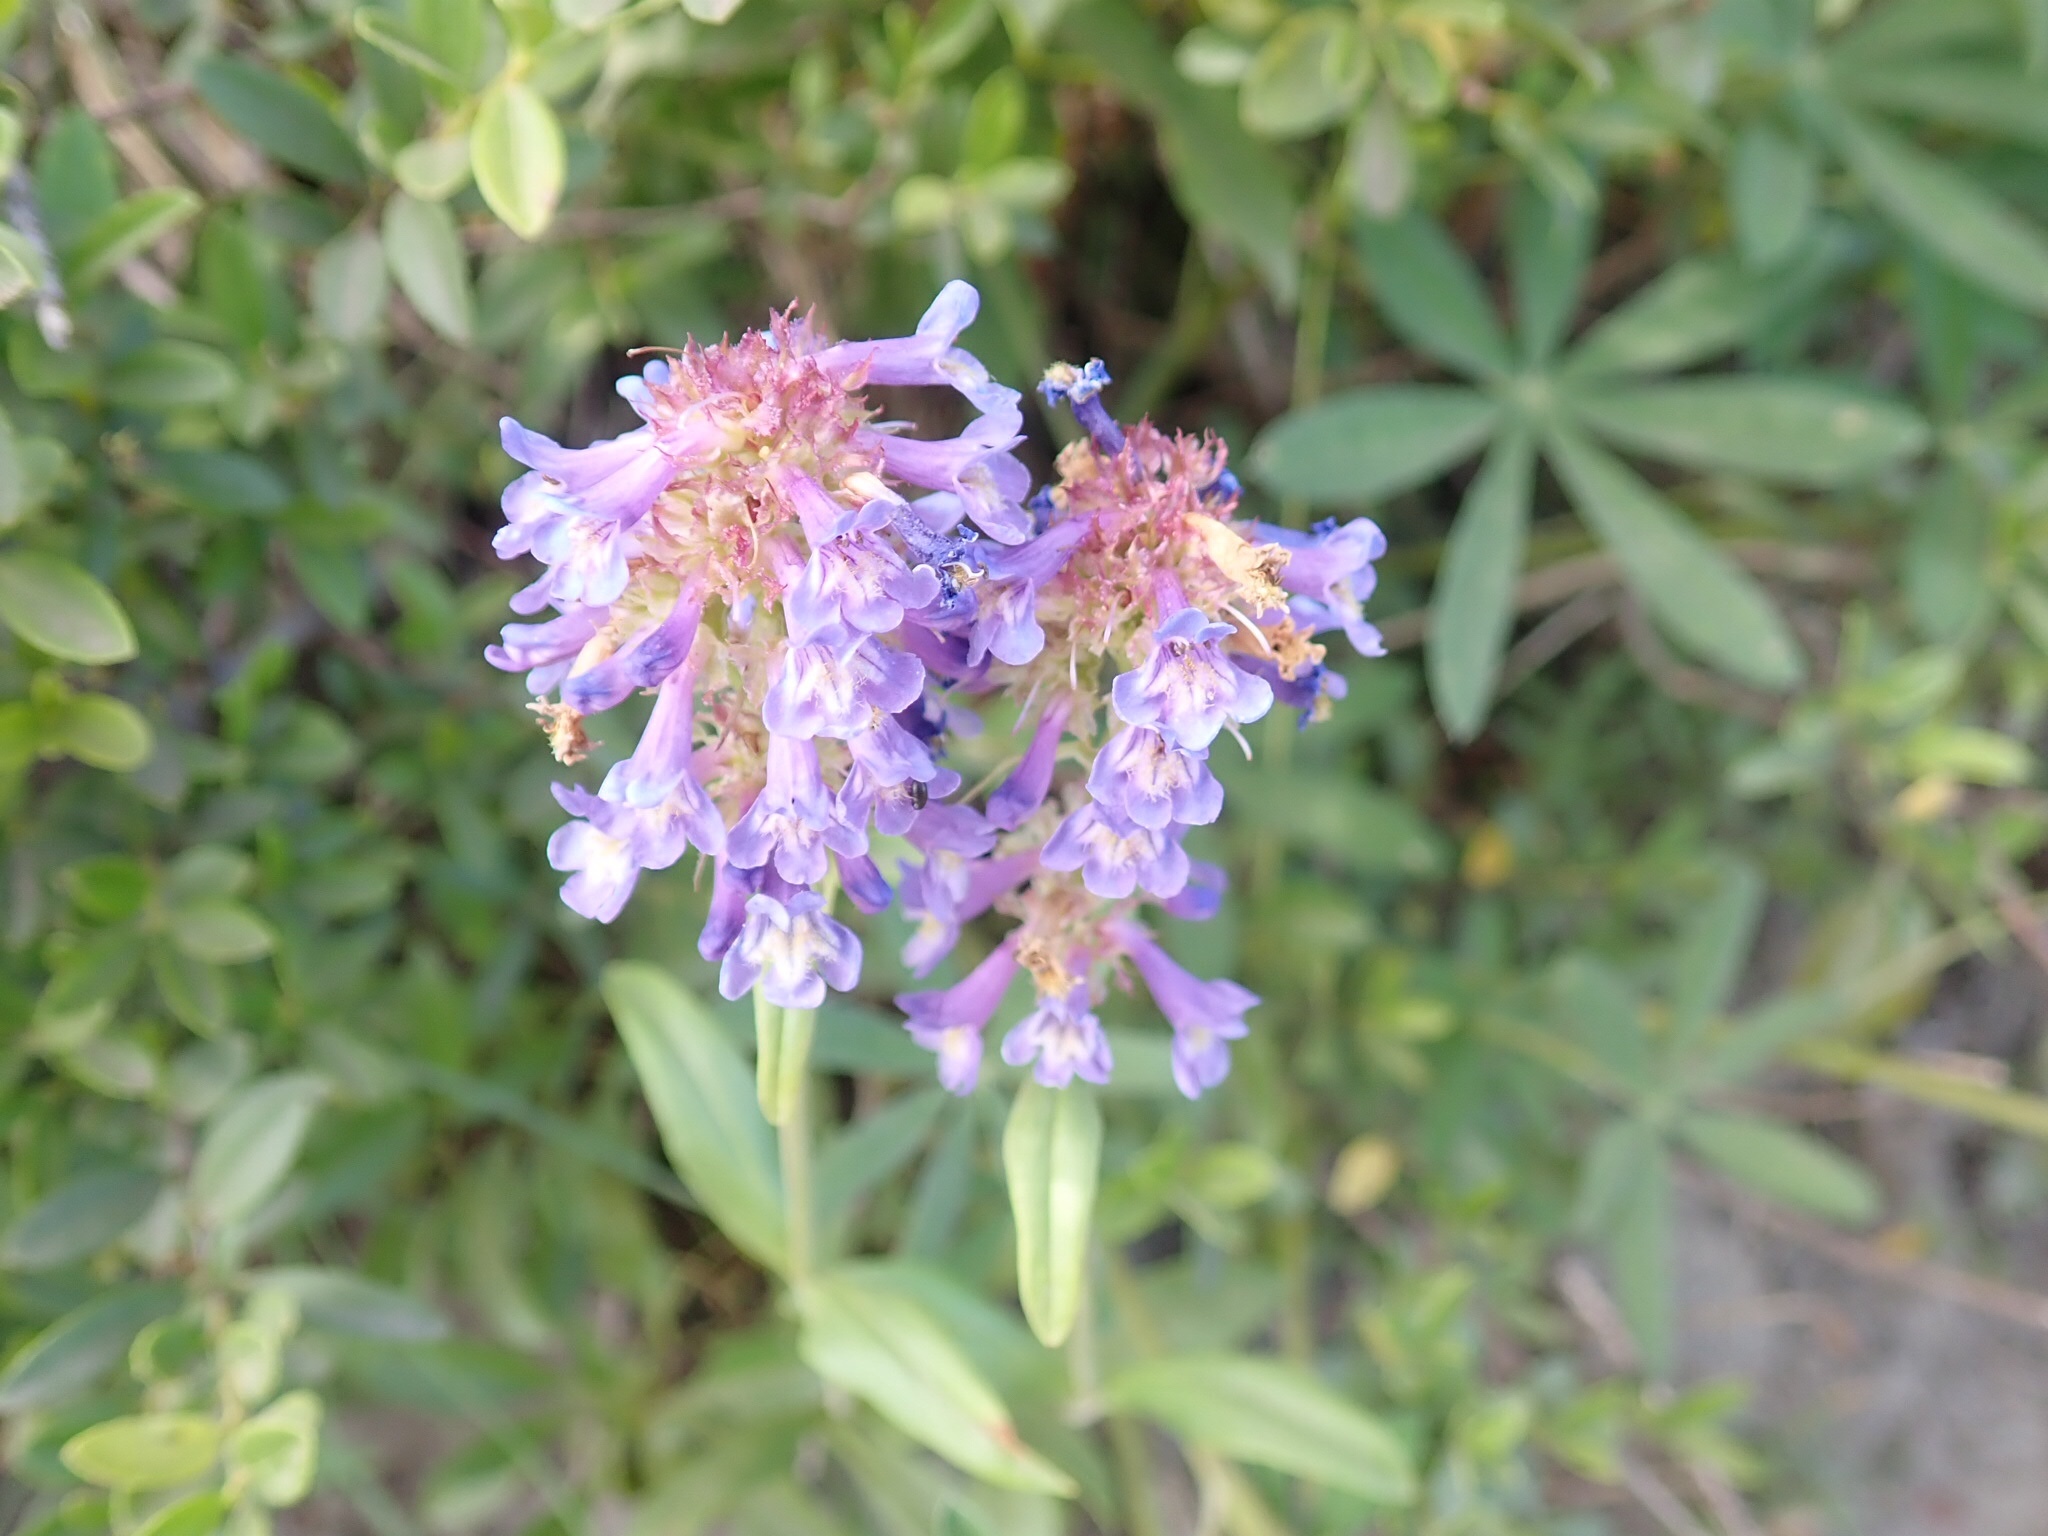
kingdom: Plantae
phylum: Tracheophyta
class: Magnoliopsida
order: Lamiales
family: Plantaginaceae
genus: Penstemon
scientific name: Penstemon procerus
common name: Small-flower penstemon
